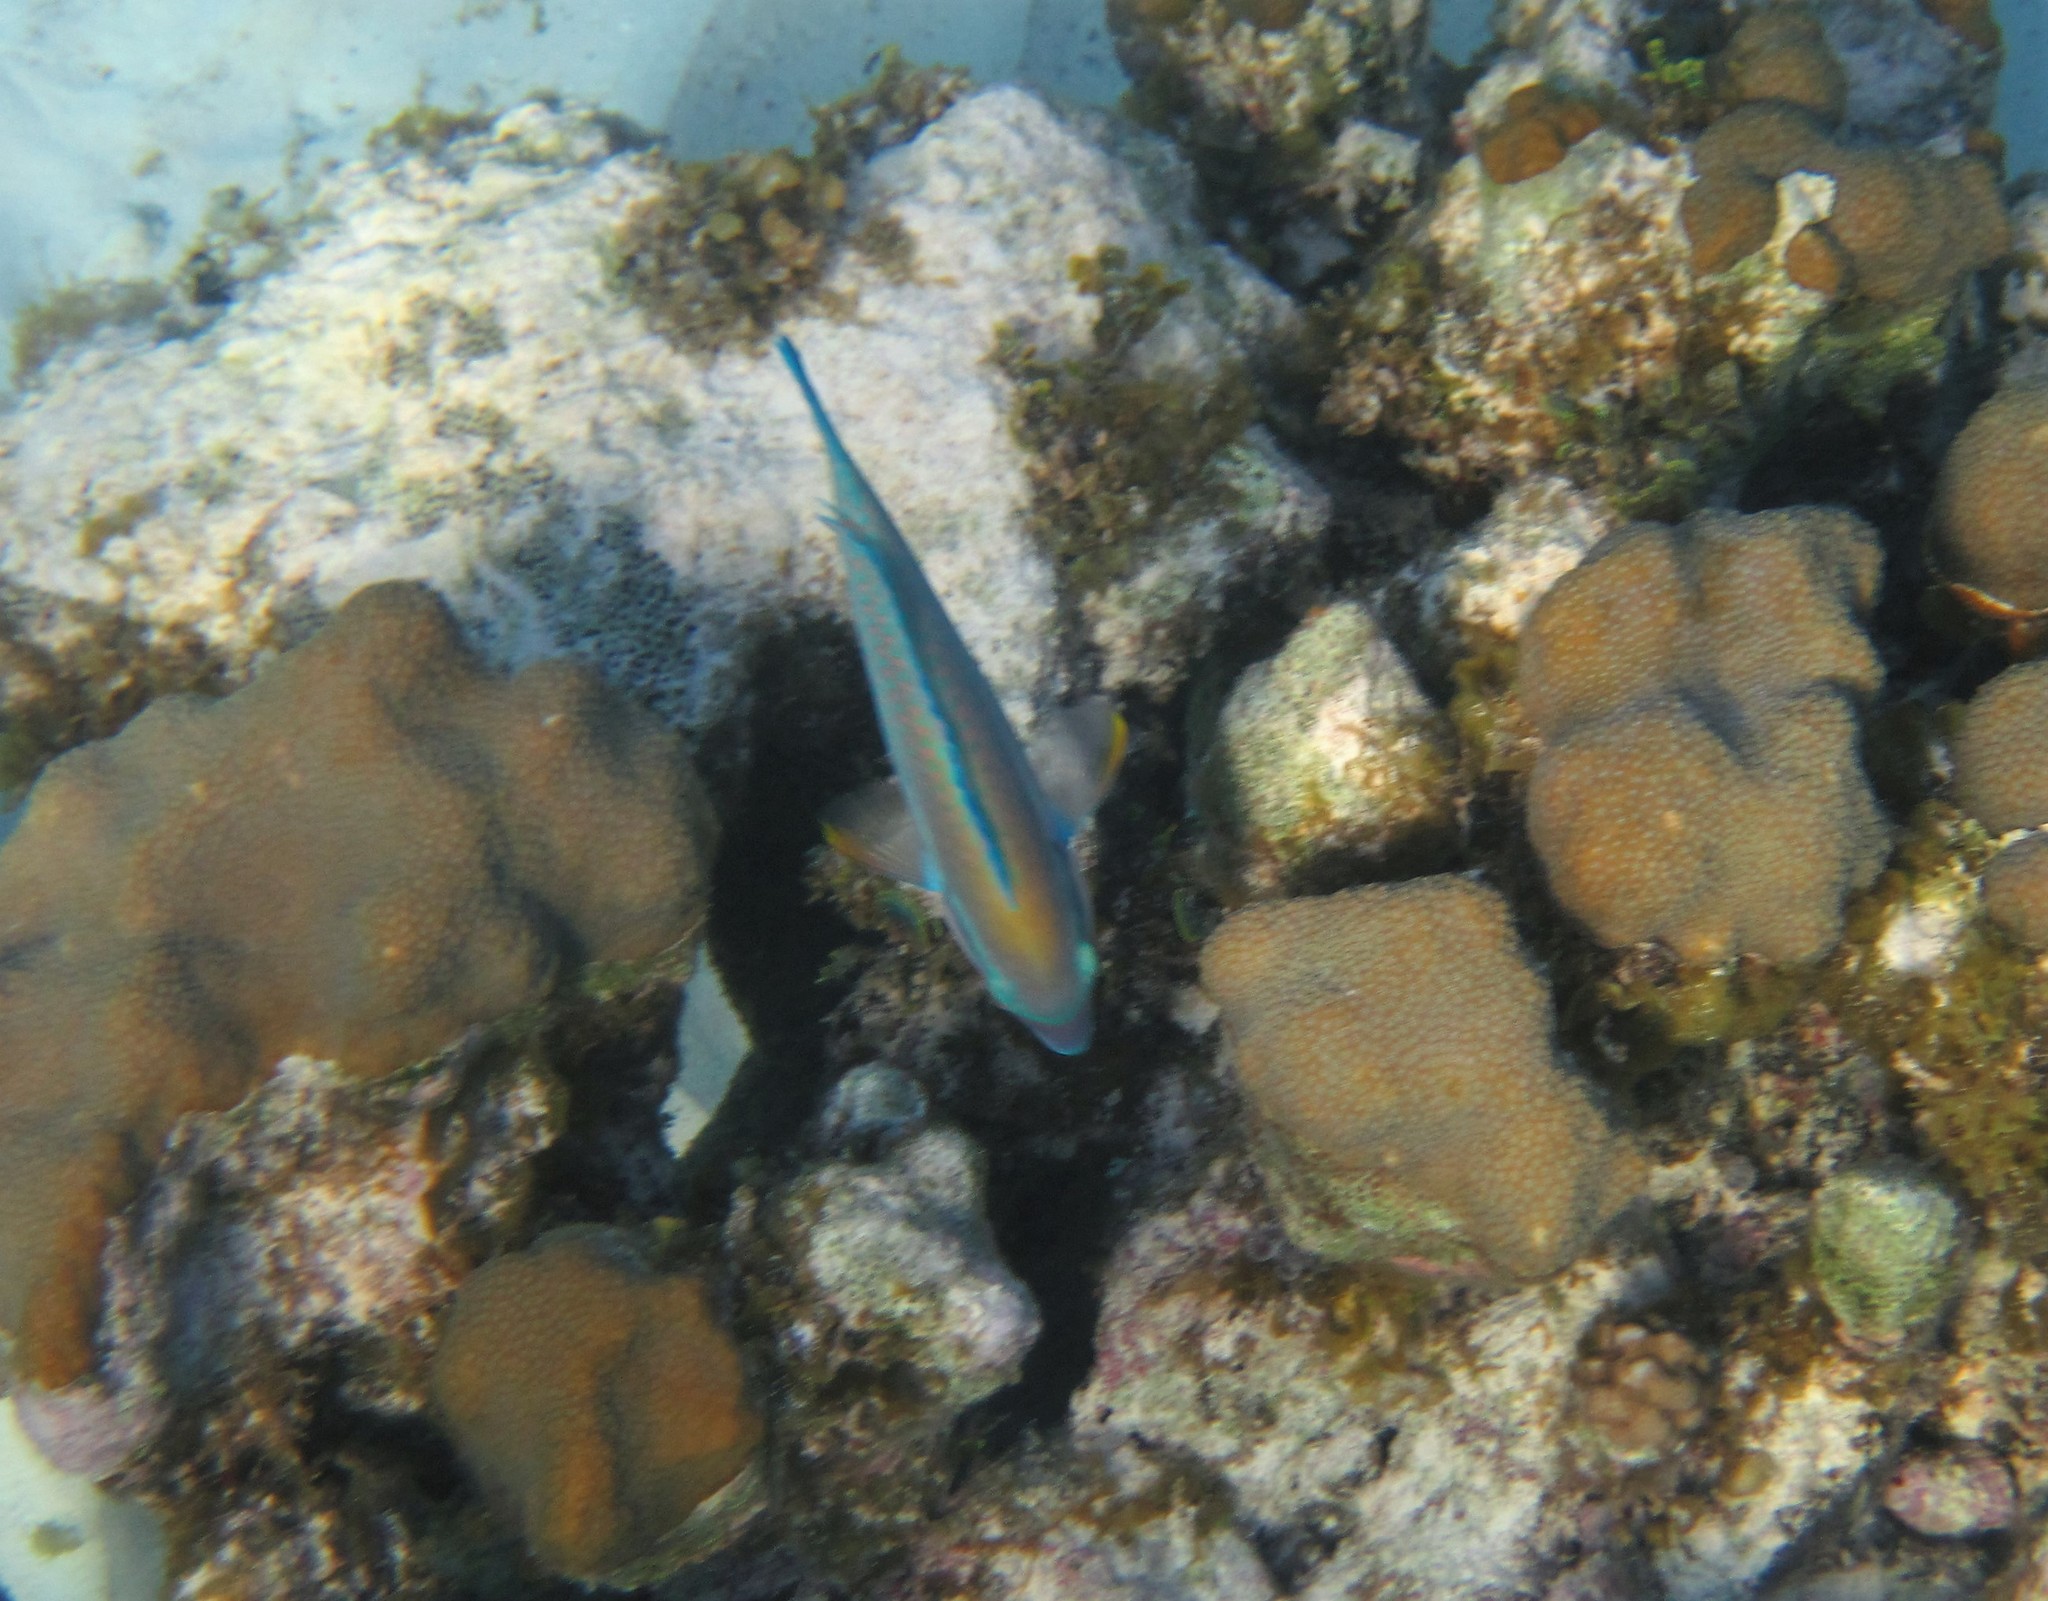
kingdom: Animalia
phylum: Chordata
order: Perciformes
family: Scaridae
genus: Scarus
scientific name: Scarus
